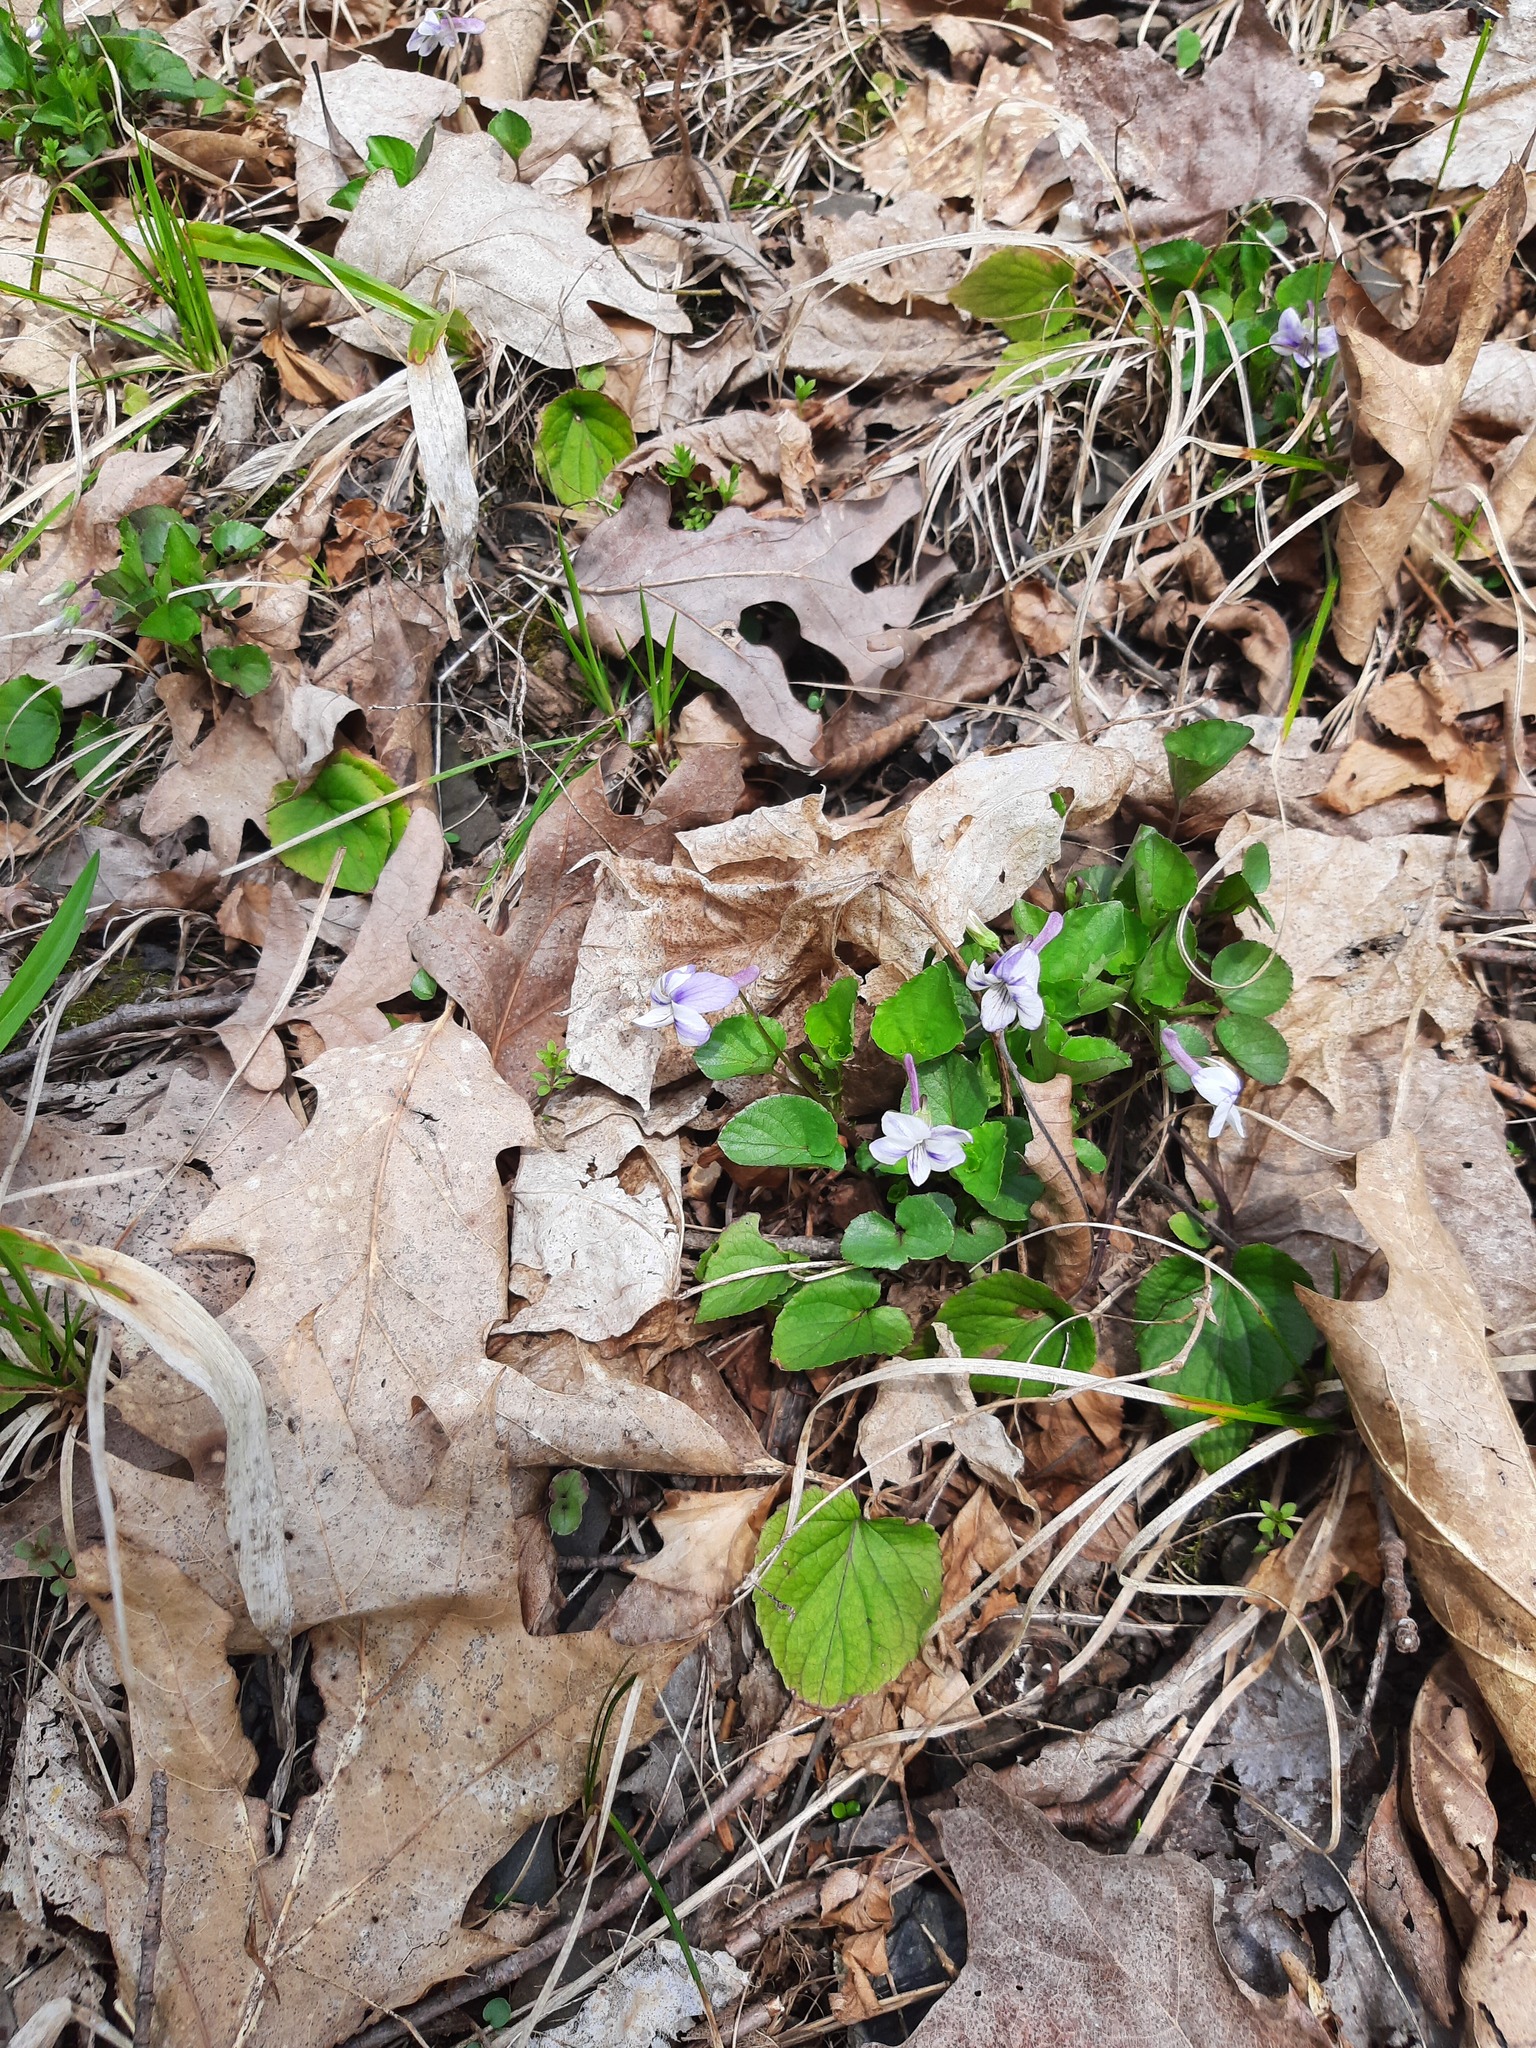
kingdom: Plantae
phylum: Tracheophyta
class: Magnoliopsida
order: Malpighiales
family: Violaceae
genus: Viola
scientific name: Viola rostrata
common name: Long-spur violet
